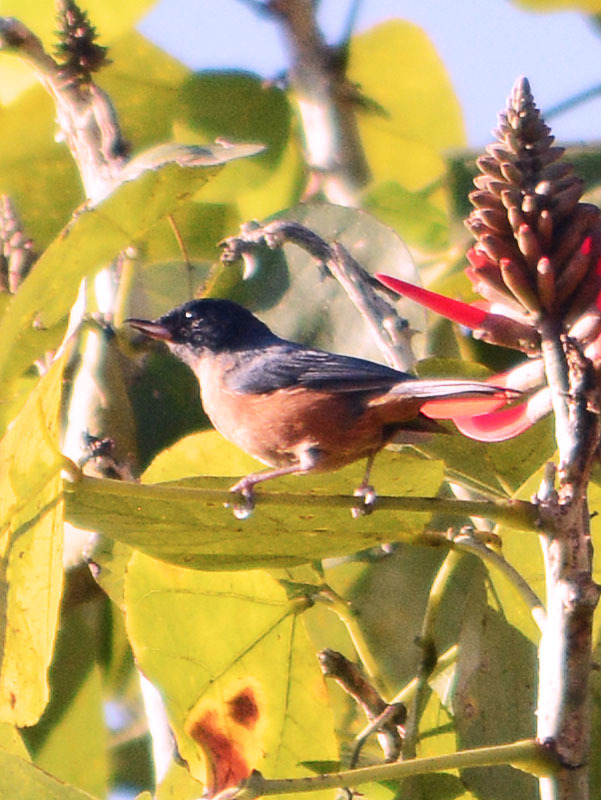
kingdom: Animalia
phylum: Chordata
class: Aves
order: Passeriformes
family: Thraupidae
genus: Diglossa
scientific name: Diglossa baritula
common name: Cinnamon-bellied flowerpiercer
